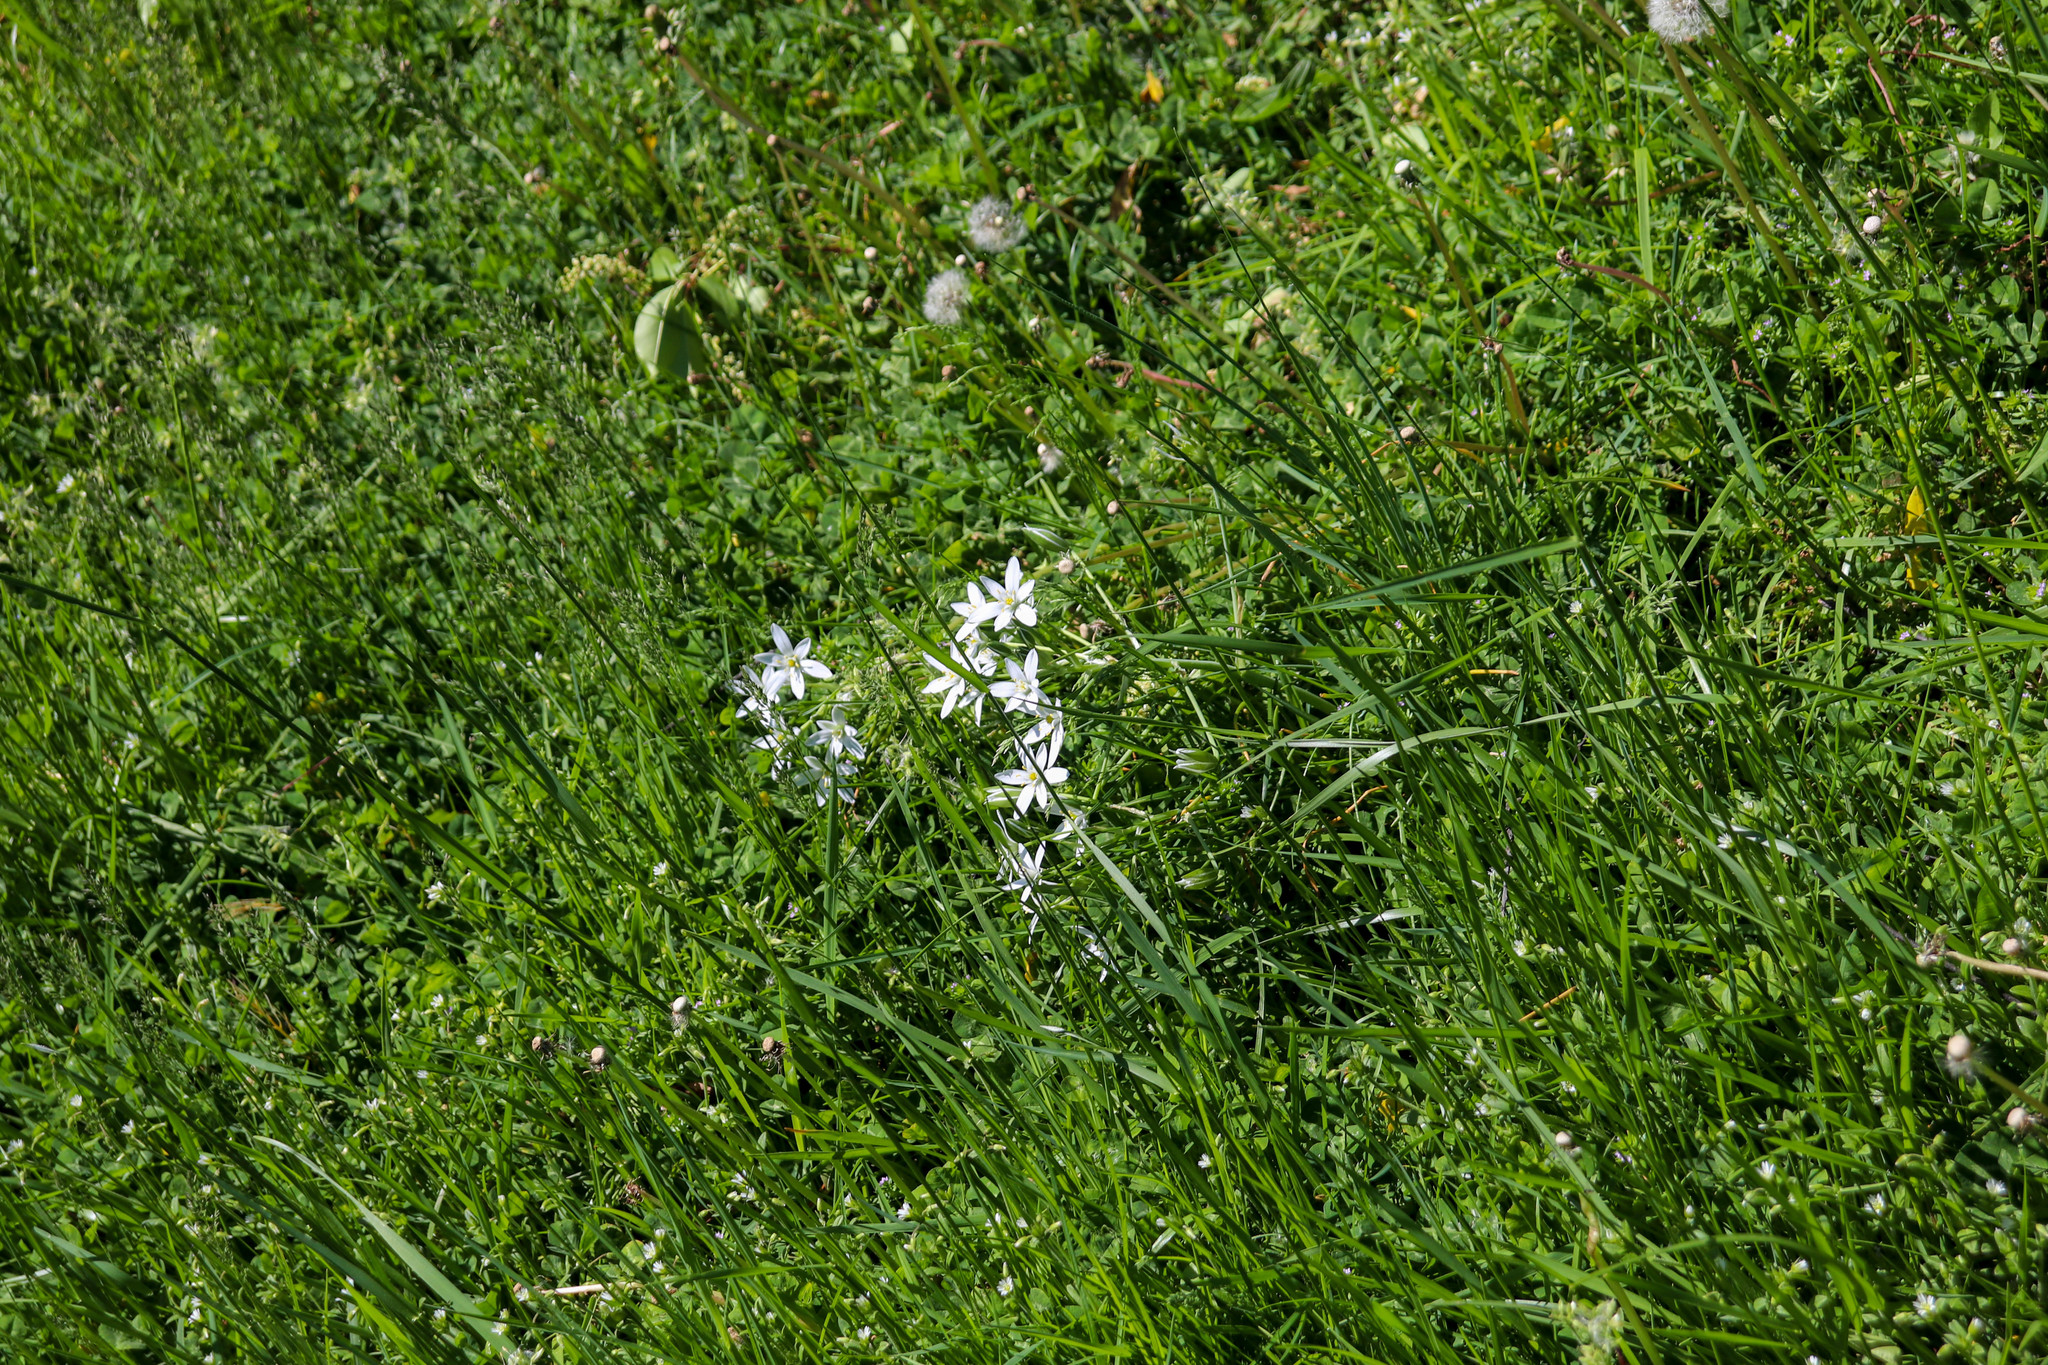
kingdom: Plantae
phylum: Tracheophyta
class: Liliopsida
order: Asparagales
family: Asparagaceae
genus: Ornithogalum
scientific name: Ornithogalum umbellatum
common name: Garden star-of-bethlehem
